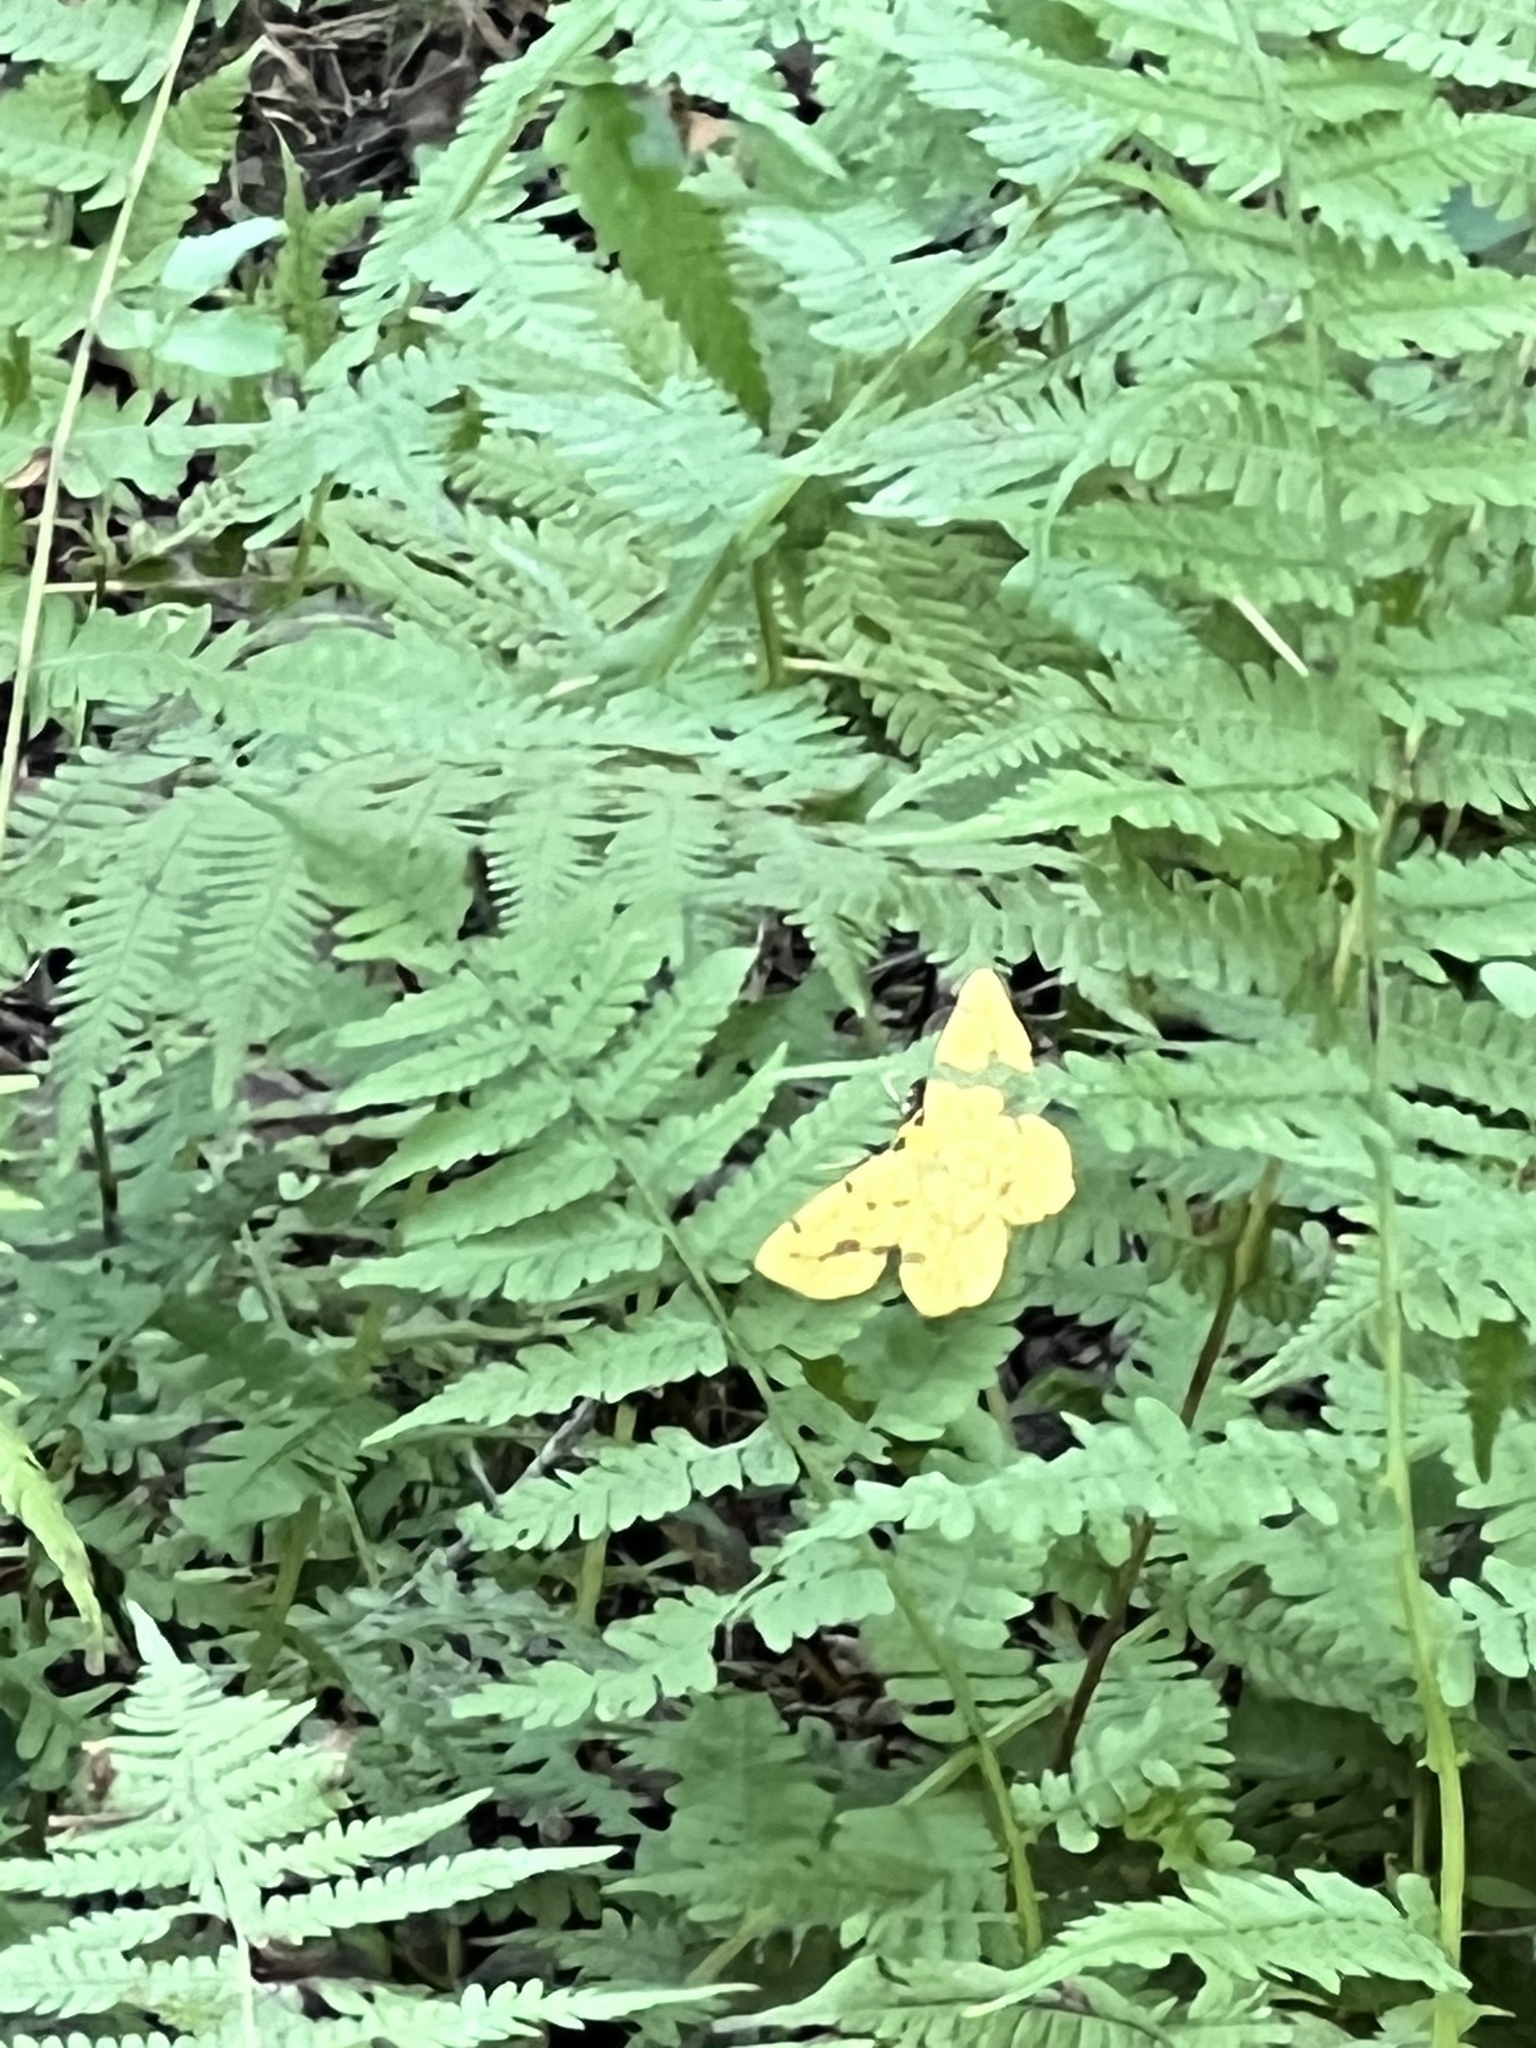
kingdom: Animalia
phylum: Arthropoda
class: Insecta
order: Lepidoptera
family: Geometridae
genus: Xanthotype
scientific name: Xanthotype
